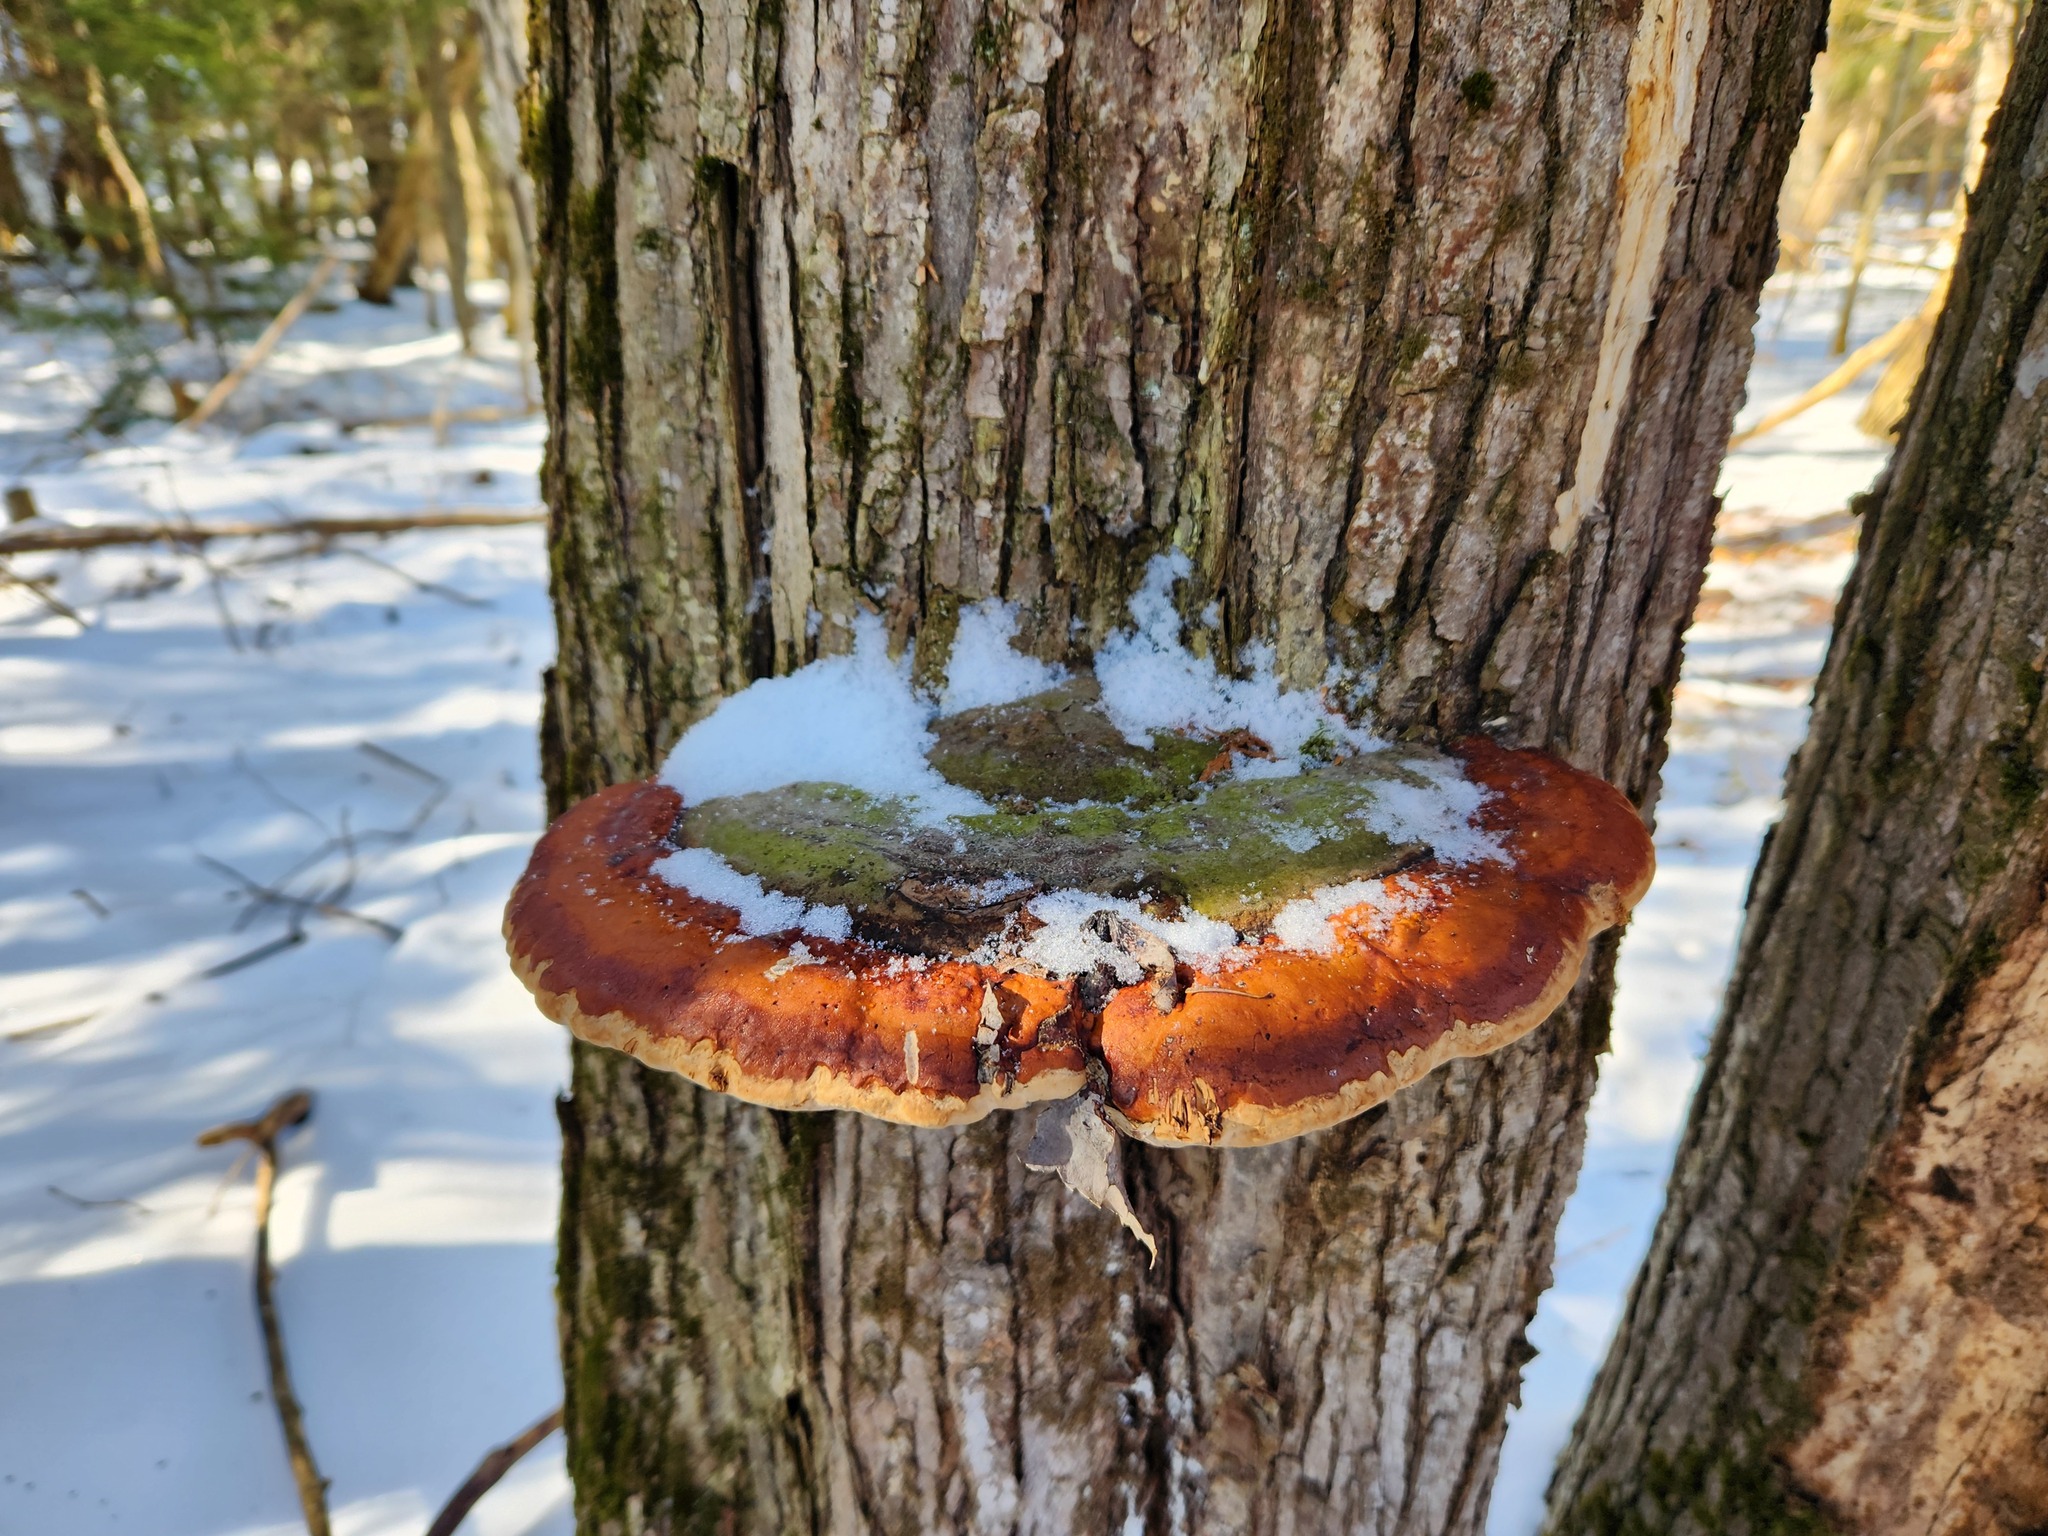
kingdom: Fungi
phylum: Basidiomycota
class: Agaricomycetes
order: Polyporales
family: Fomitopsidaceae
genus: Fomitopsis
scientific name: Fomitopsis mounceae
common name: Northern red belt
